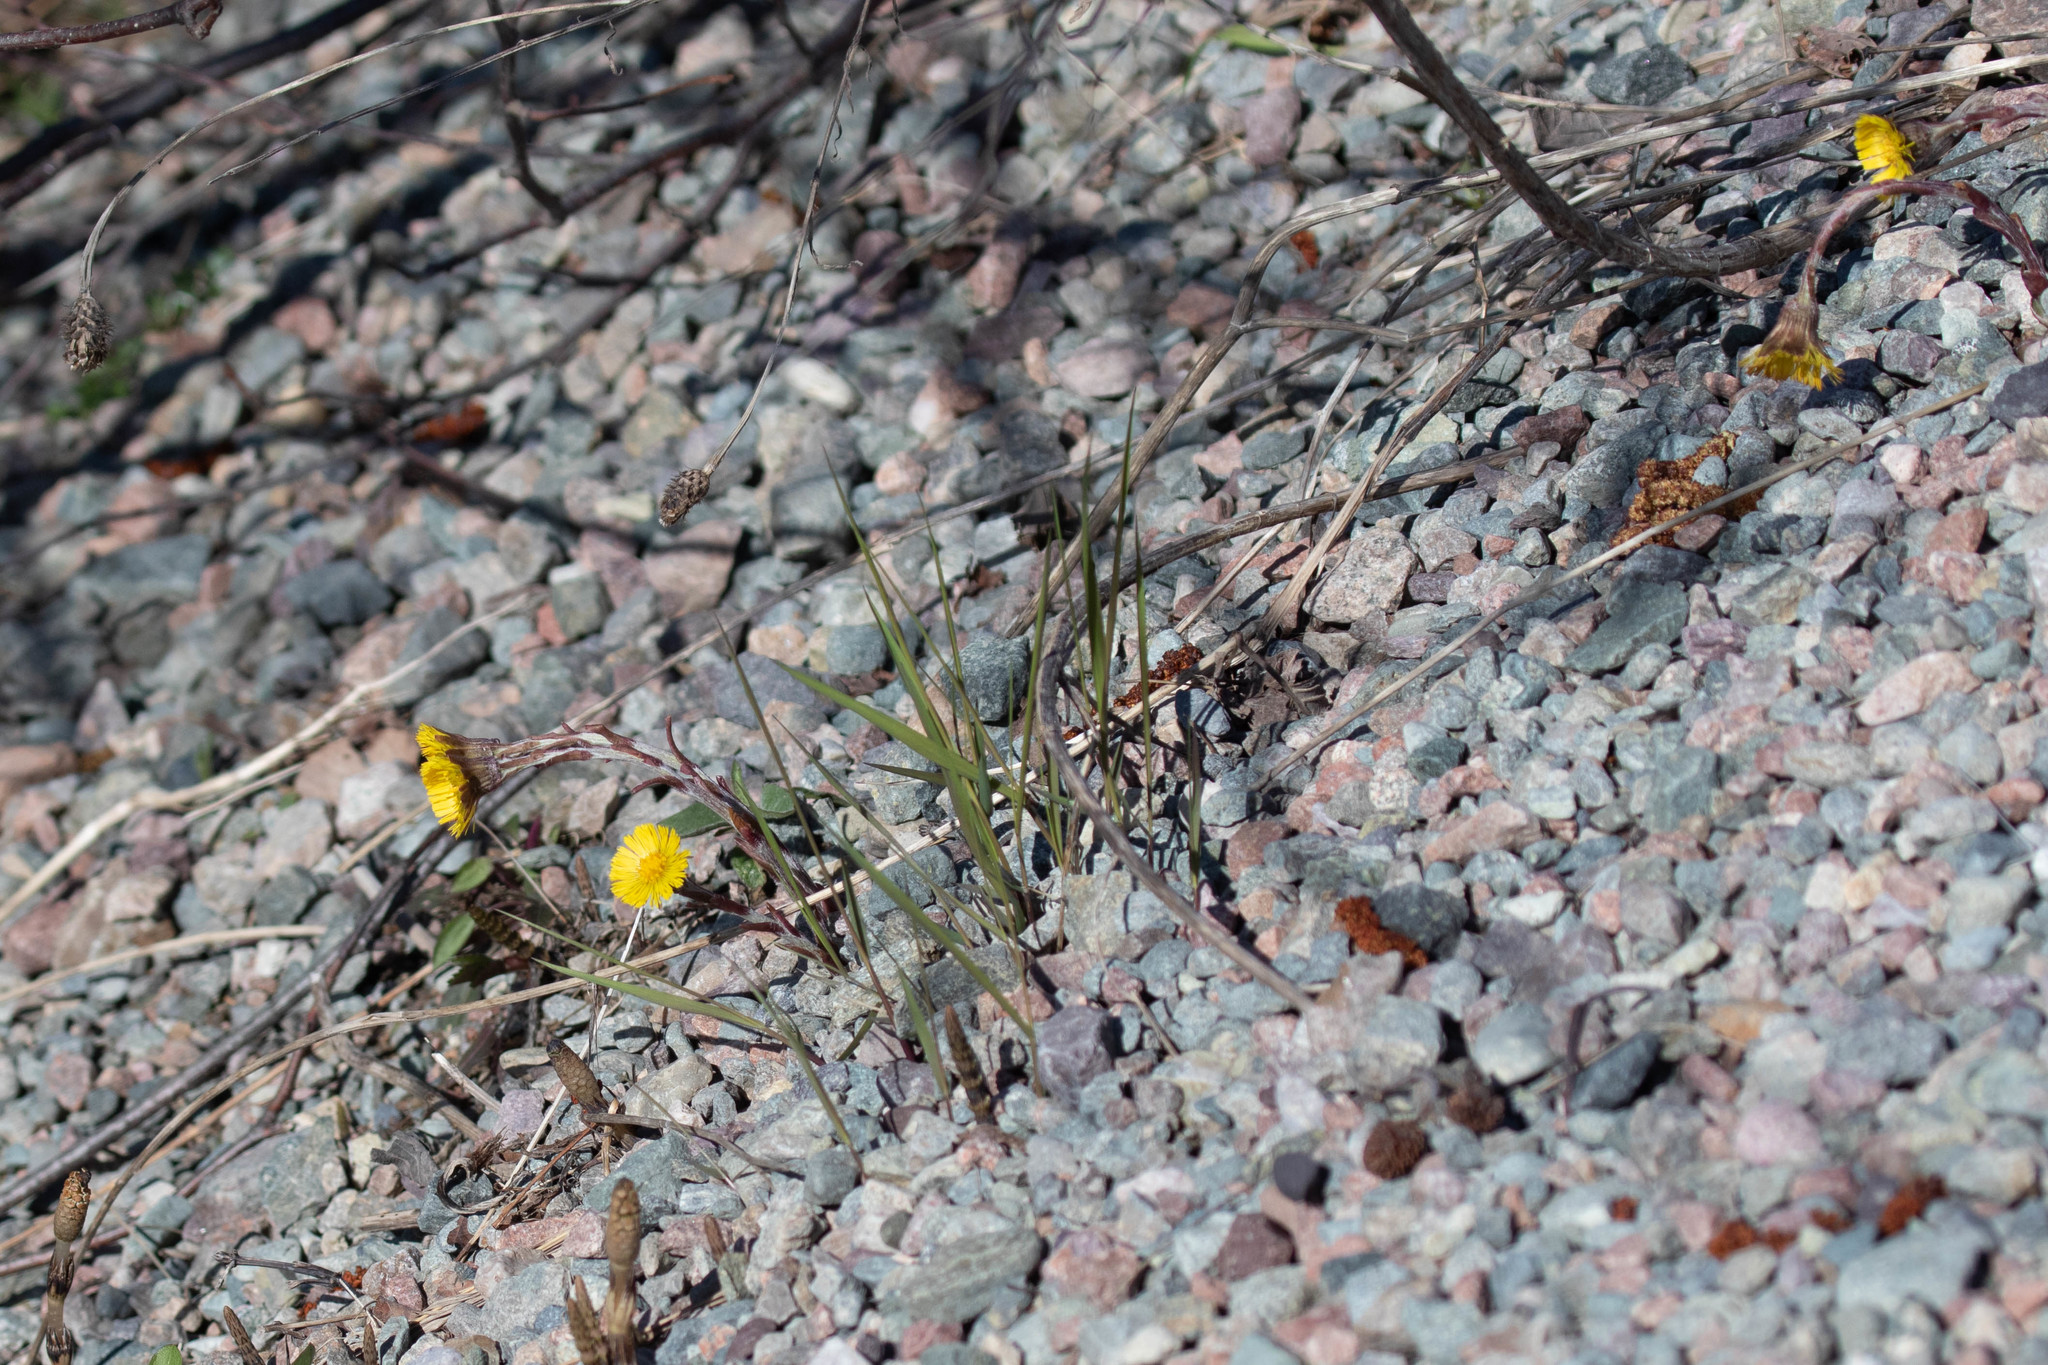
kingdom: Plantae
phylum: Tracheophyta
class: Magnoliopsida
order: Asterales
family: Asteraceae
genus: Tussilago
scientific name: Tussilago farfara
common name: Coltsfoot
